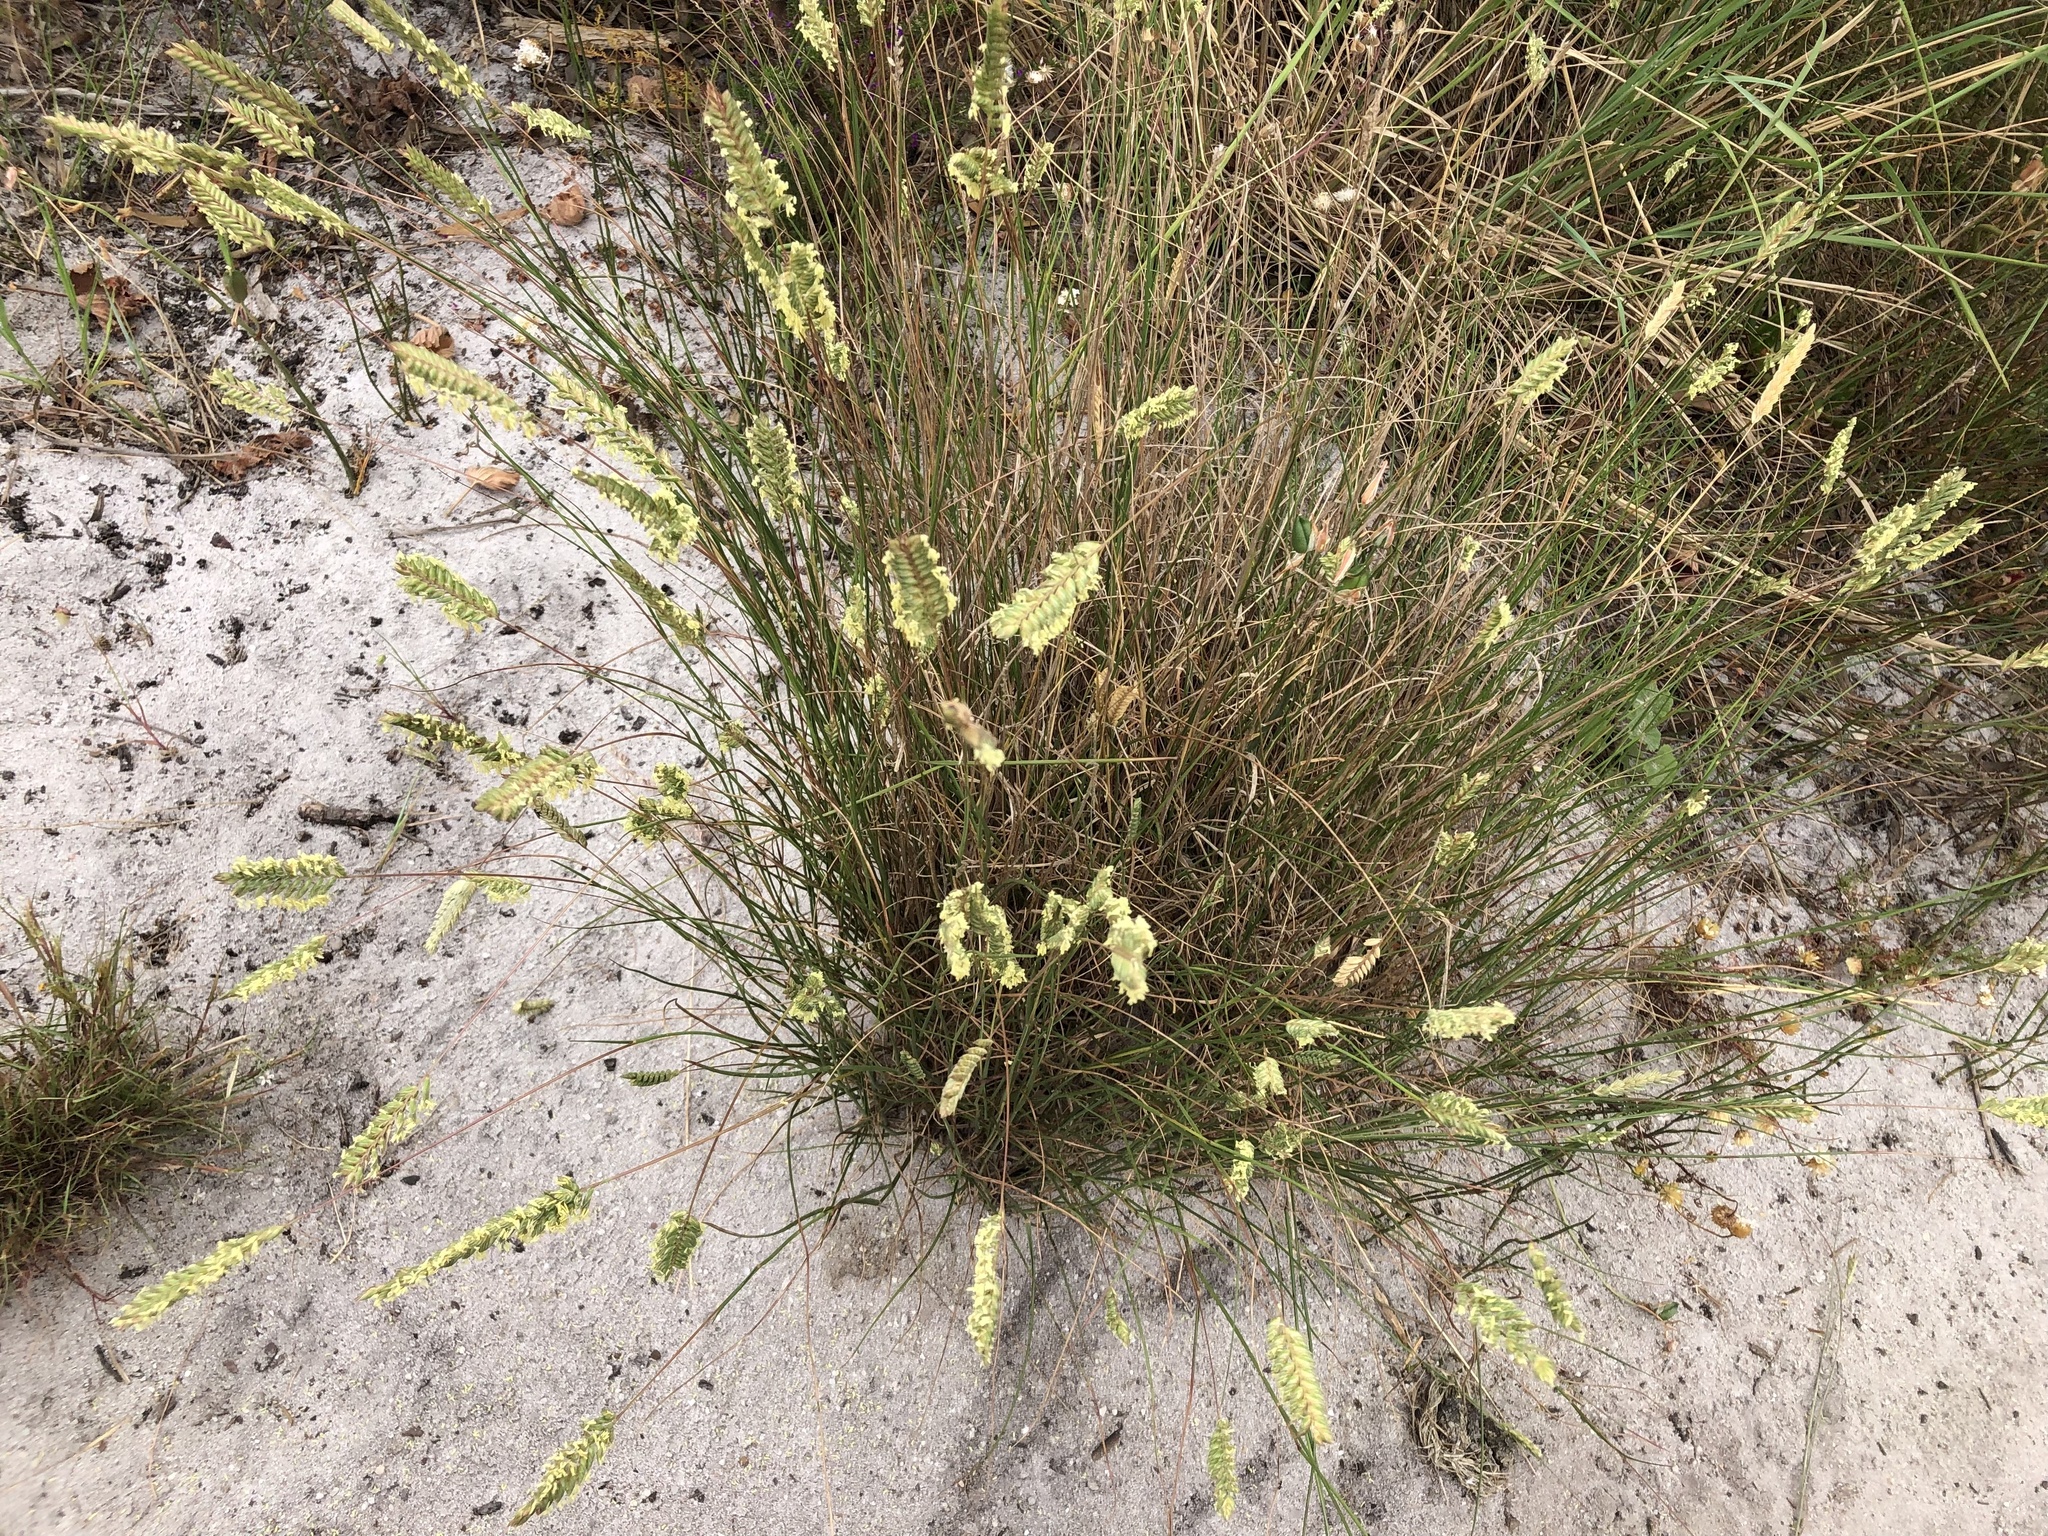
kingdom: Plantae
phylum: Tracheophyta
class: Liliopsida
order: Poales
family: Poaceae
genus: Tribolium
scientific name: Tribolium uniolae
